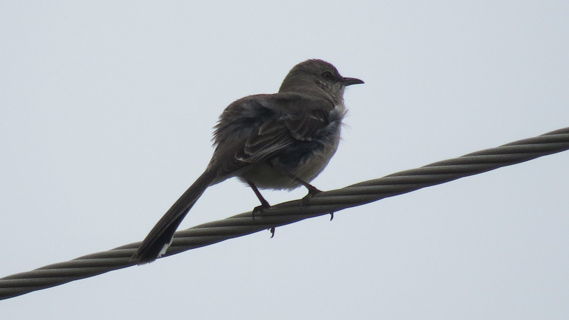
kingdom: Animalia
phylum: Chordata
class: Aves
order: Passeriformes
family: Mimidae
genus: Mimus
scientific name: Mimus polyglottos
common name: Northern mockingbird
